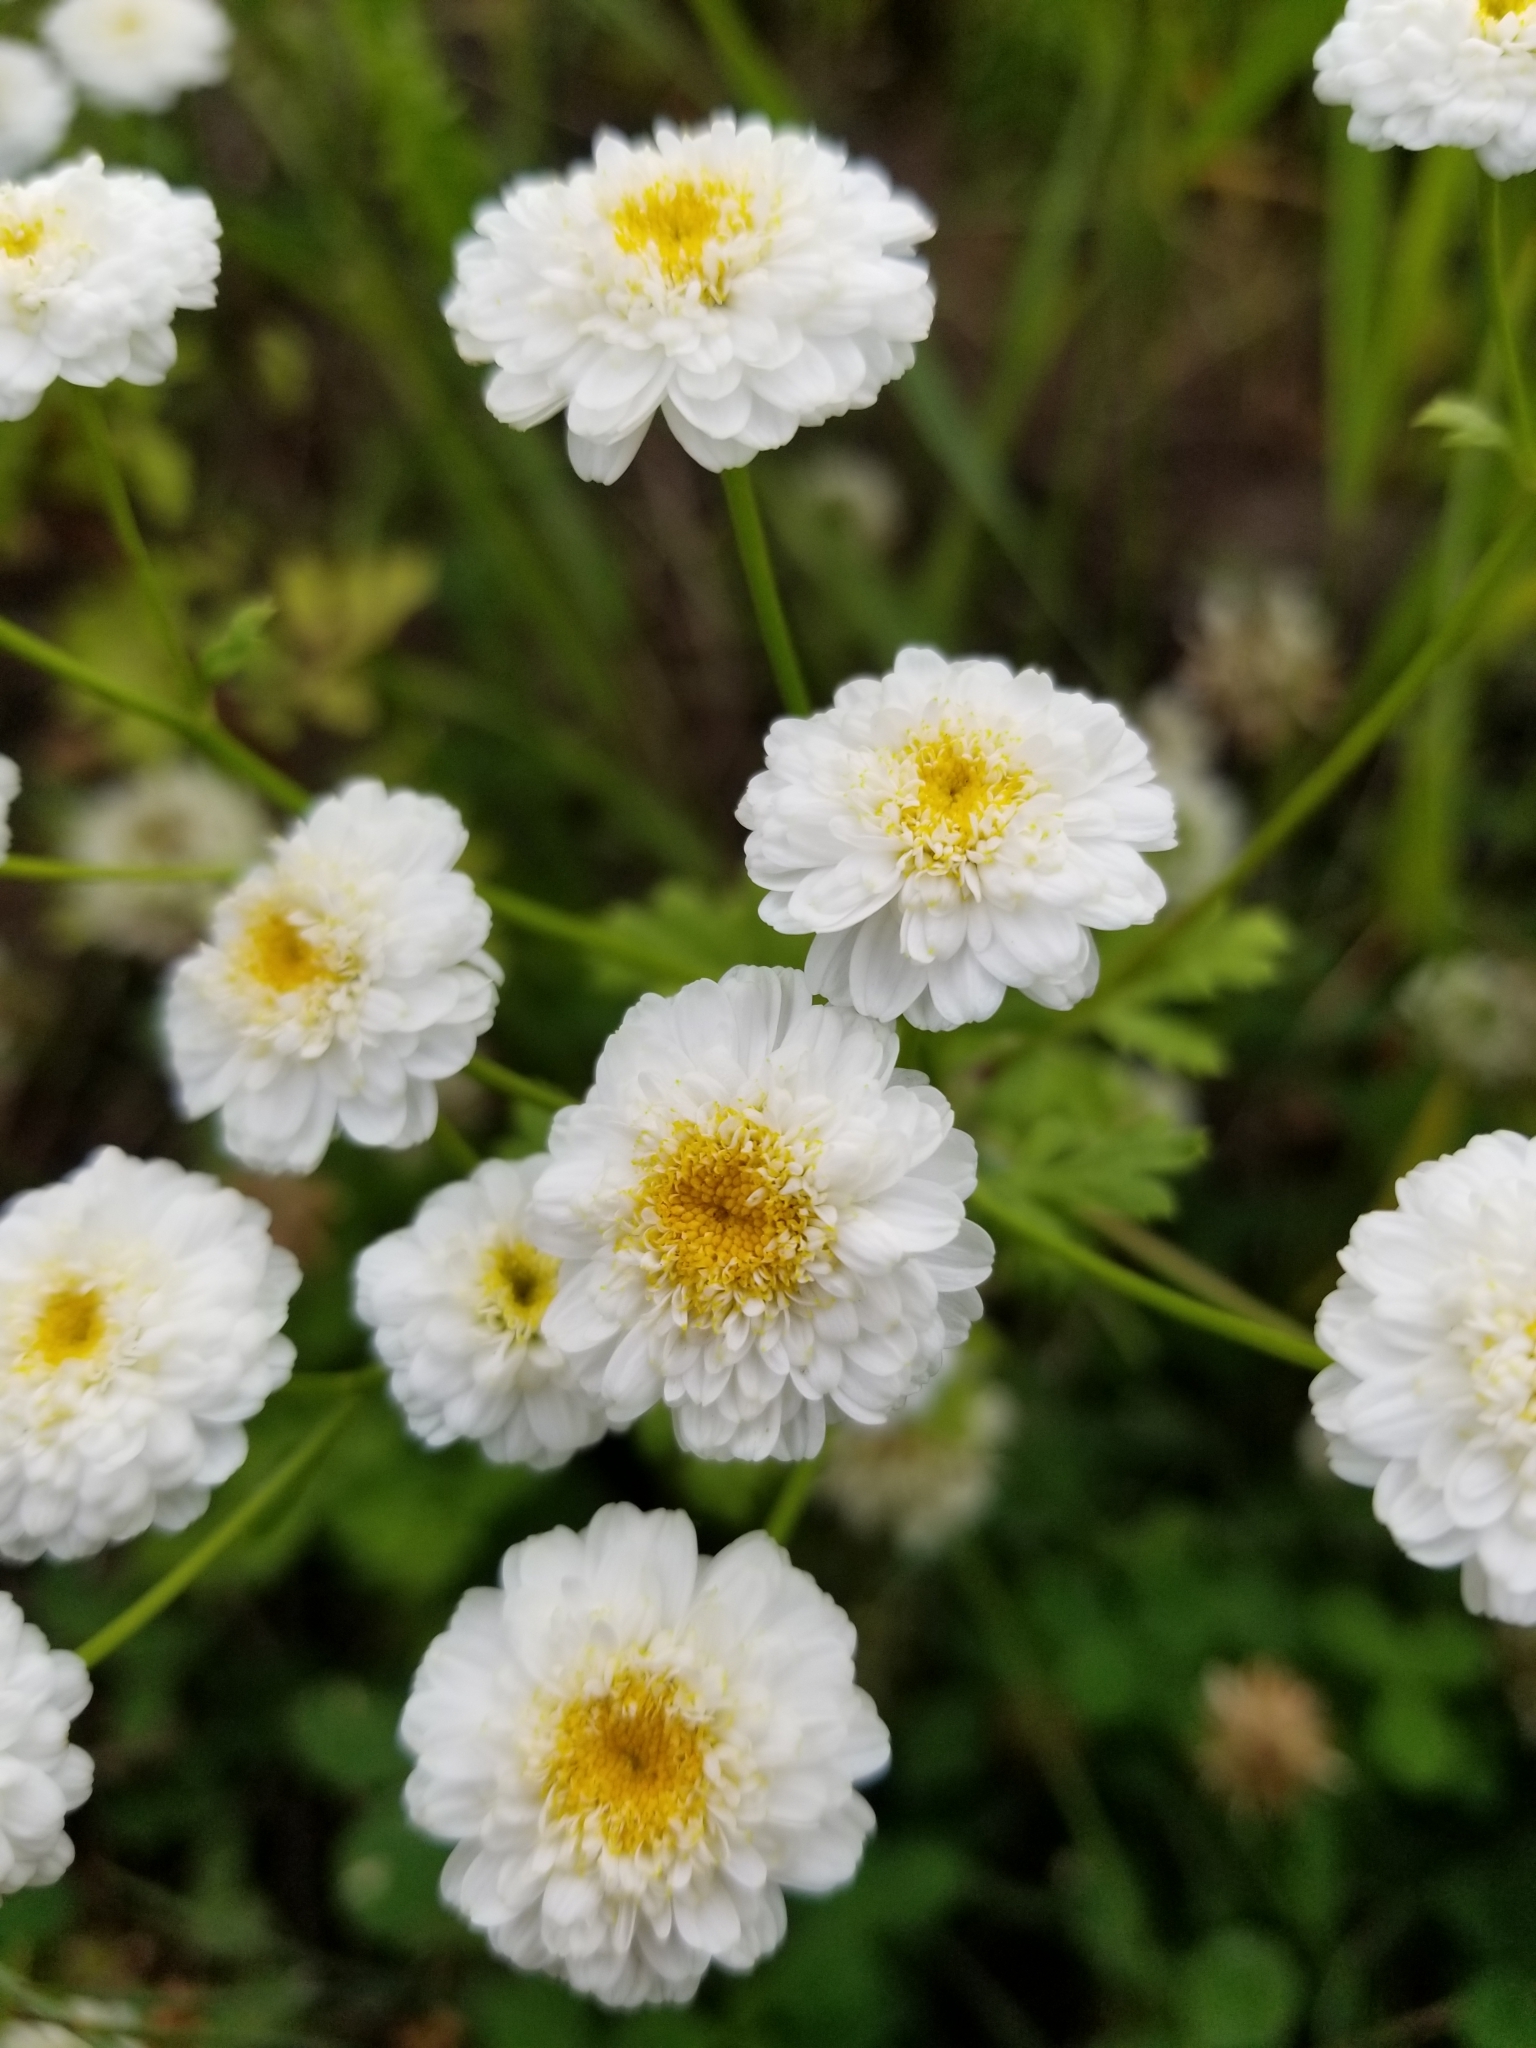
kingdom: Plantae
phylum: Tracheophyta
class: Magnoliopsida
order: Asterales
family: Asteraceae
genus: Tanacetum
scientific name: Tanacetum parthenium
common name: Feverfew
